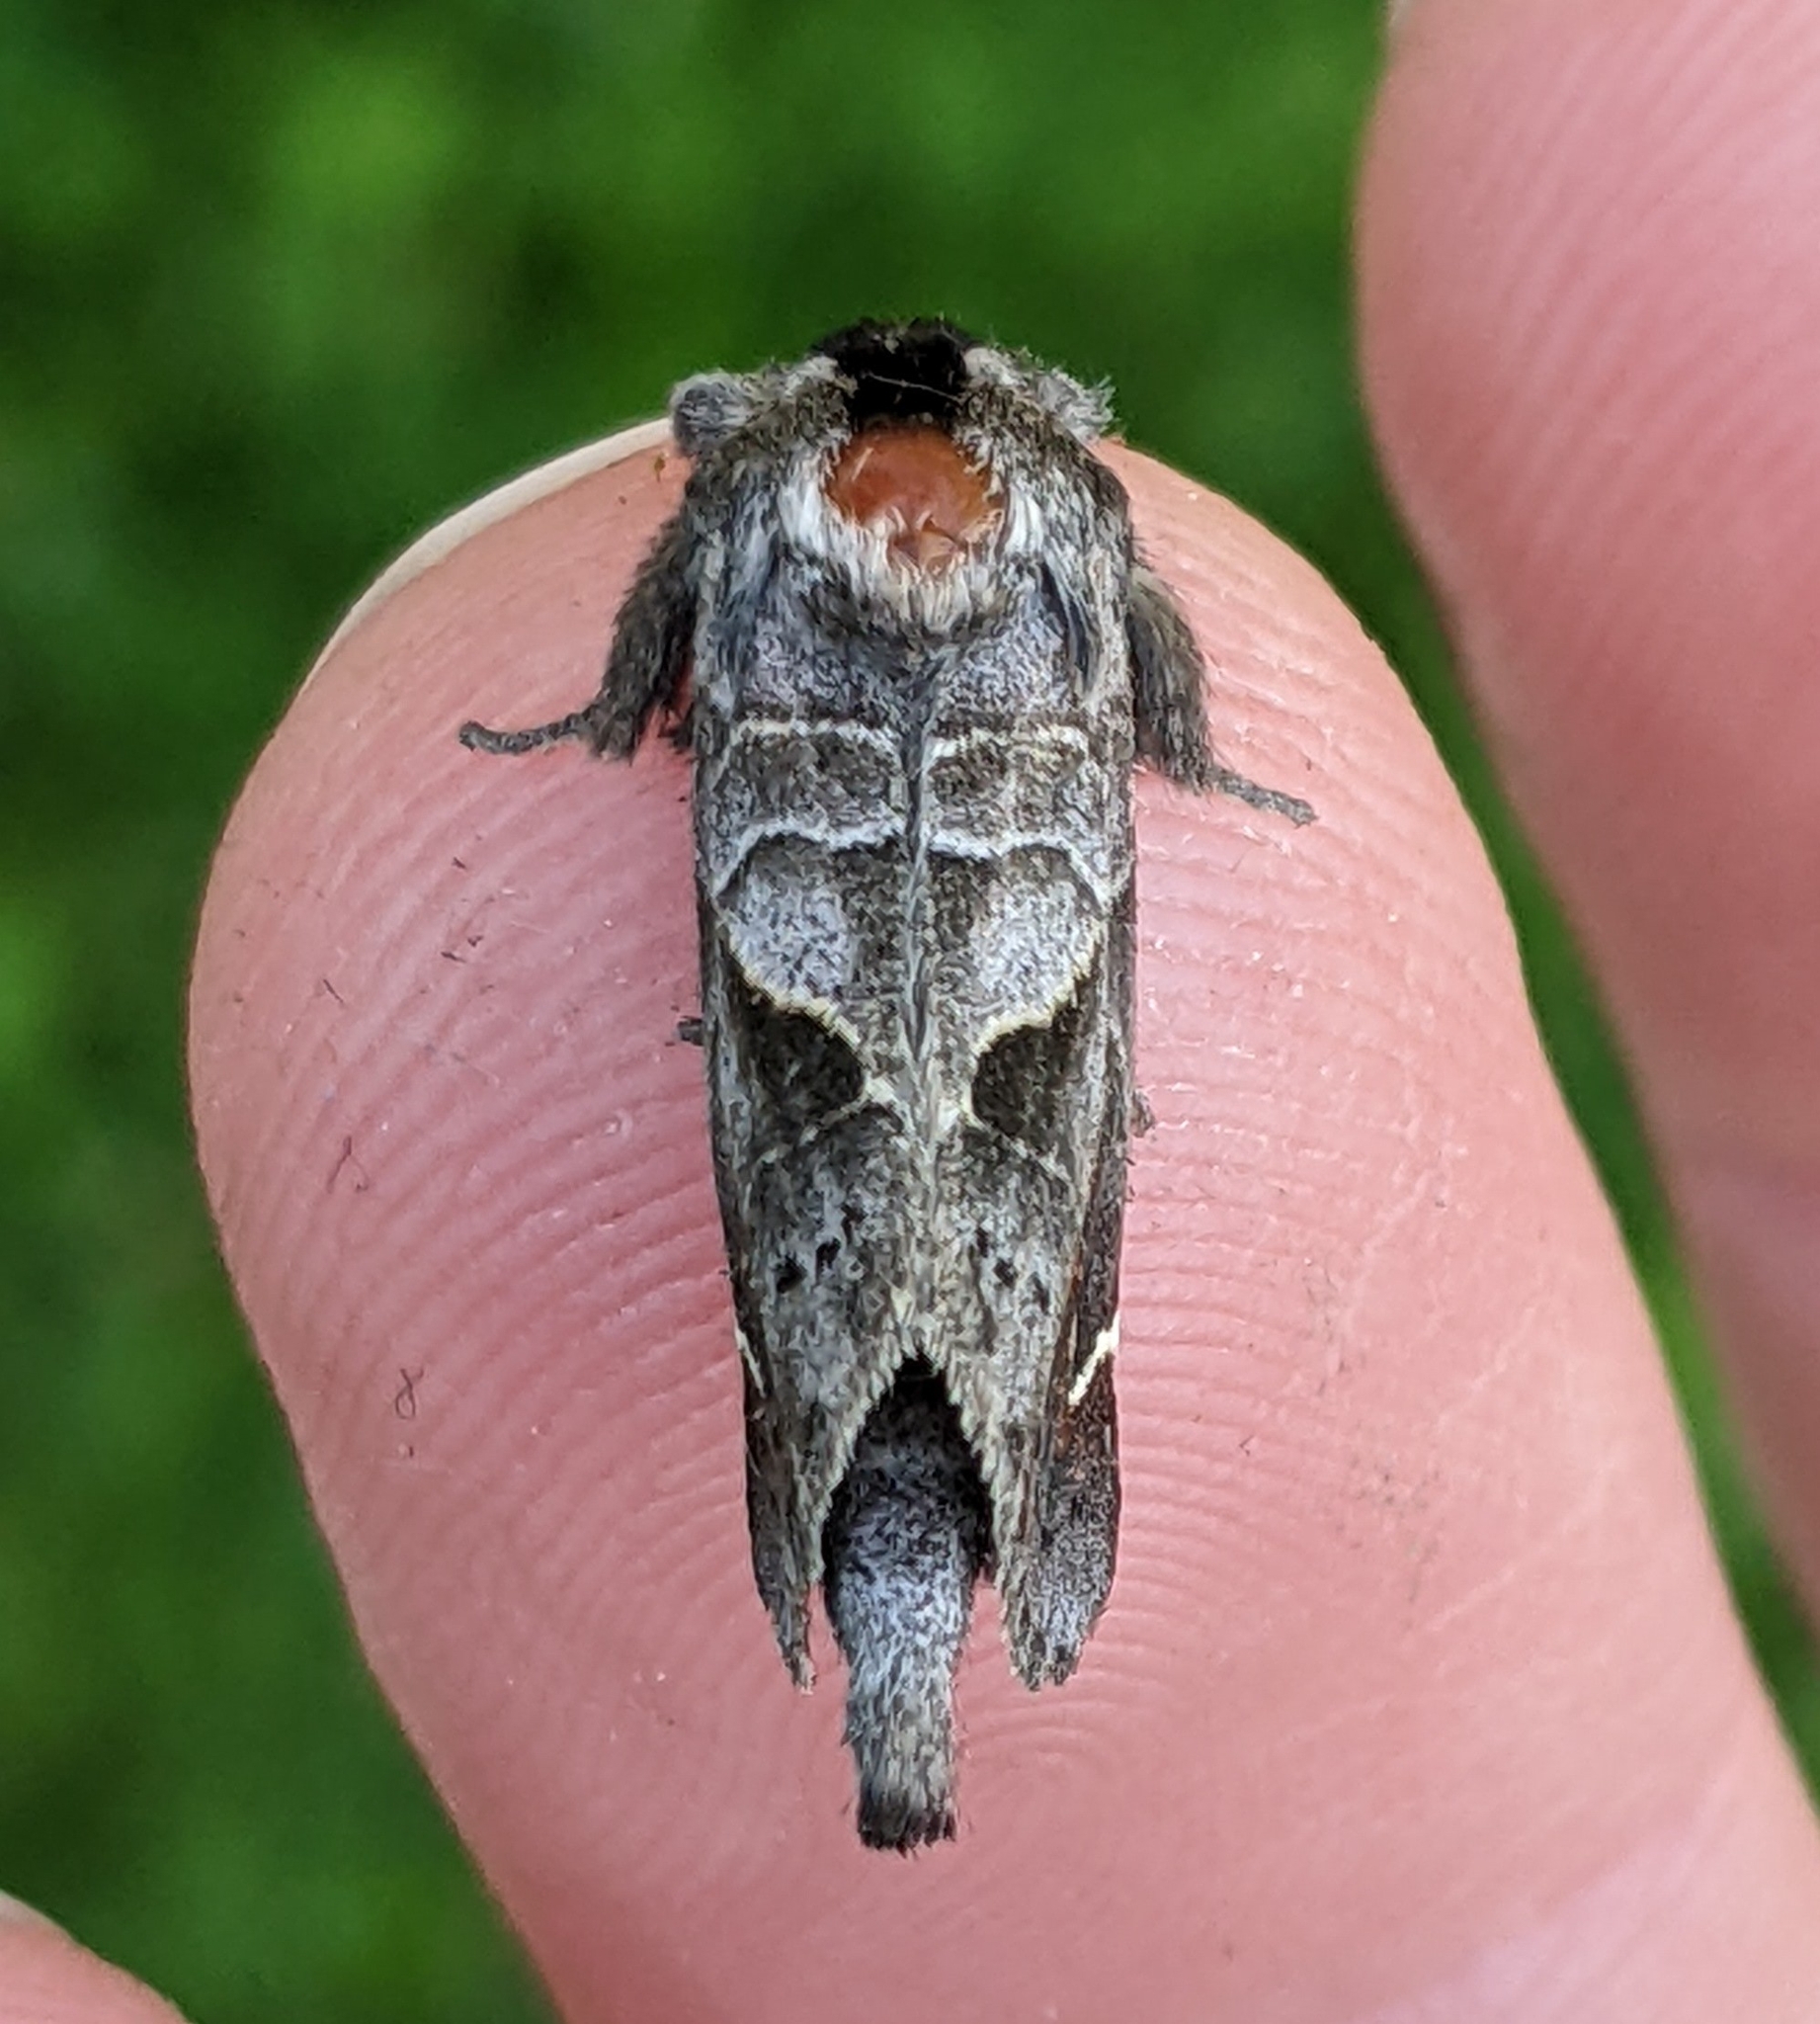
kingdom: Animalia
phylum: Arthropoda
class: Insecta
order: Lepidoptera
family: Notodontidae
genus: Clostera
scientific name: Clostera apicalis
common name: Apical prominent
